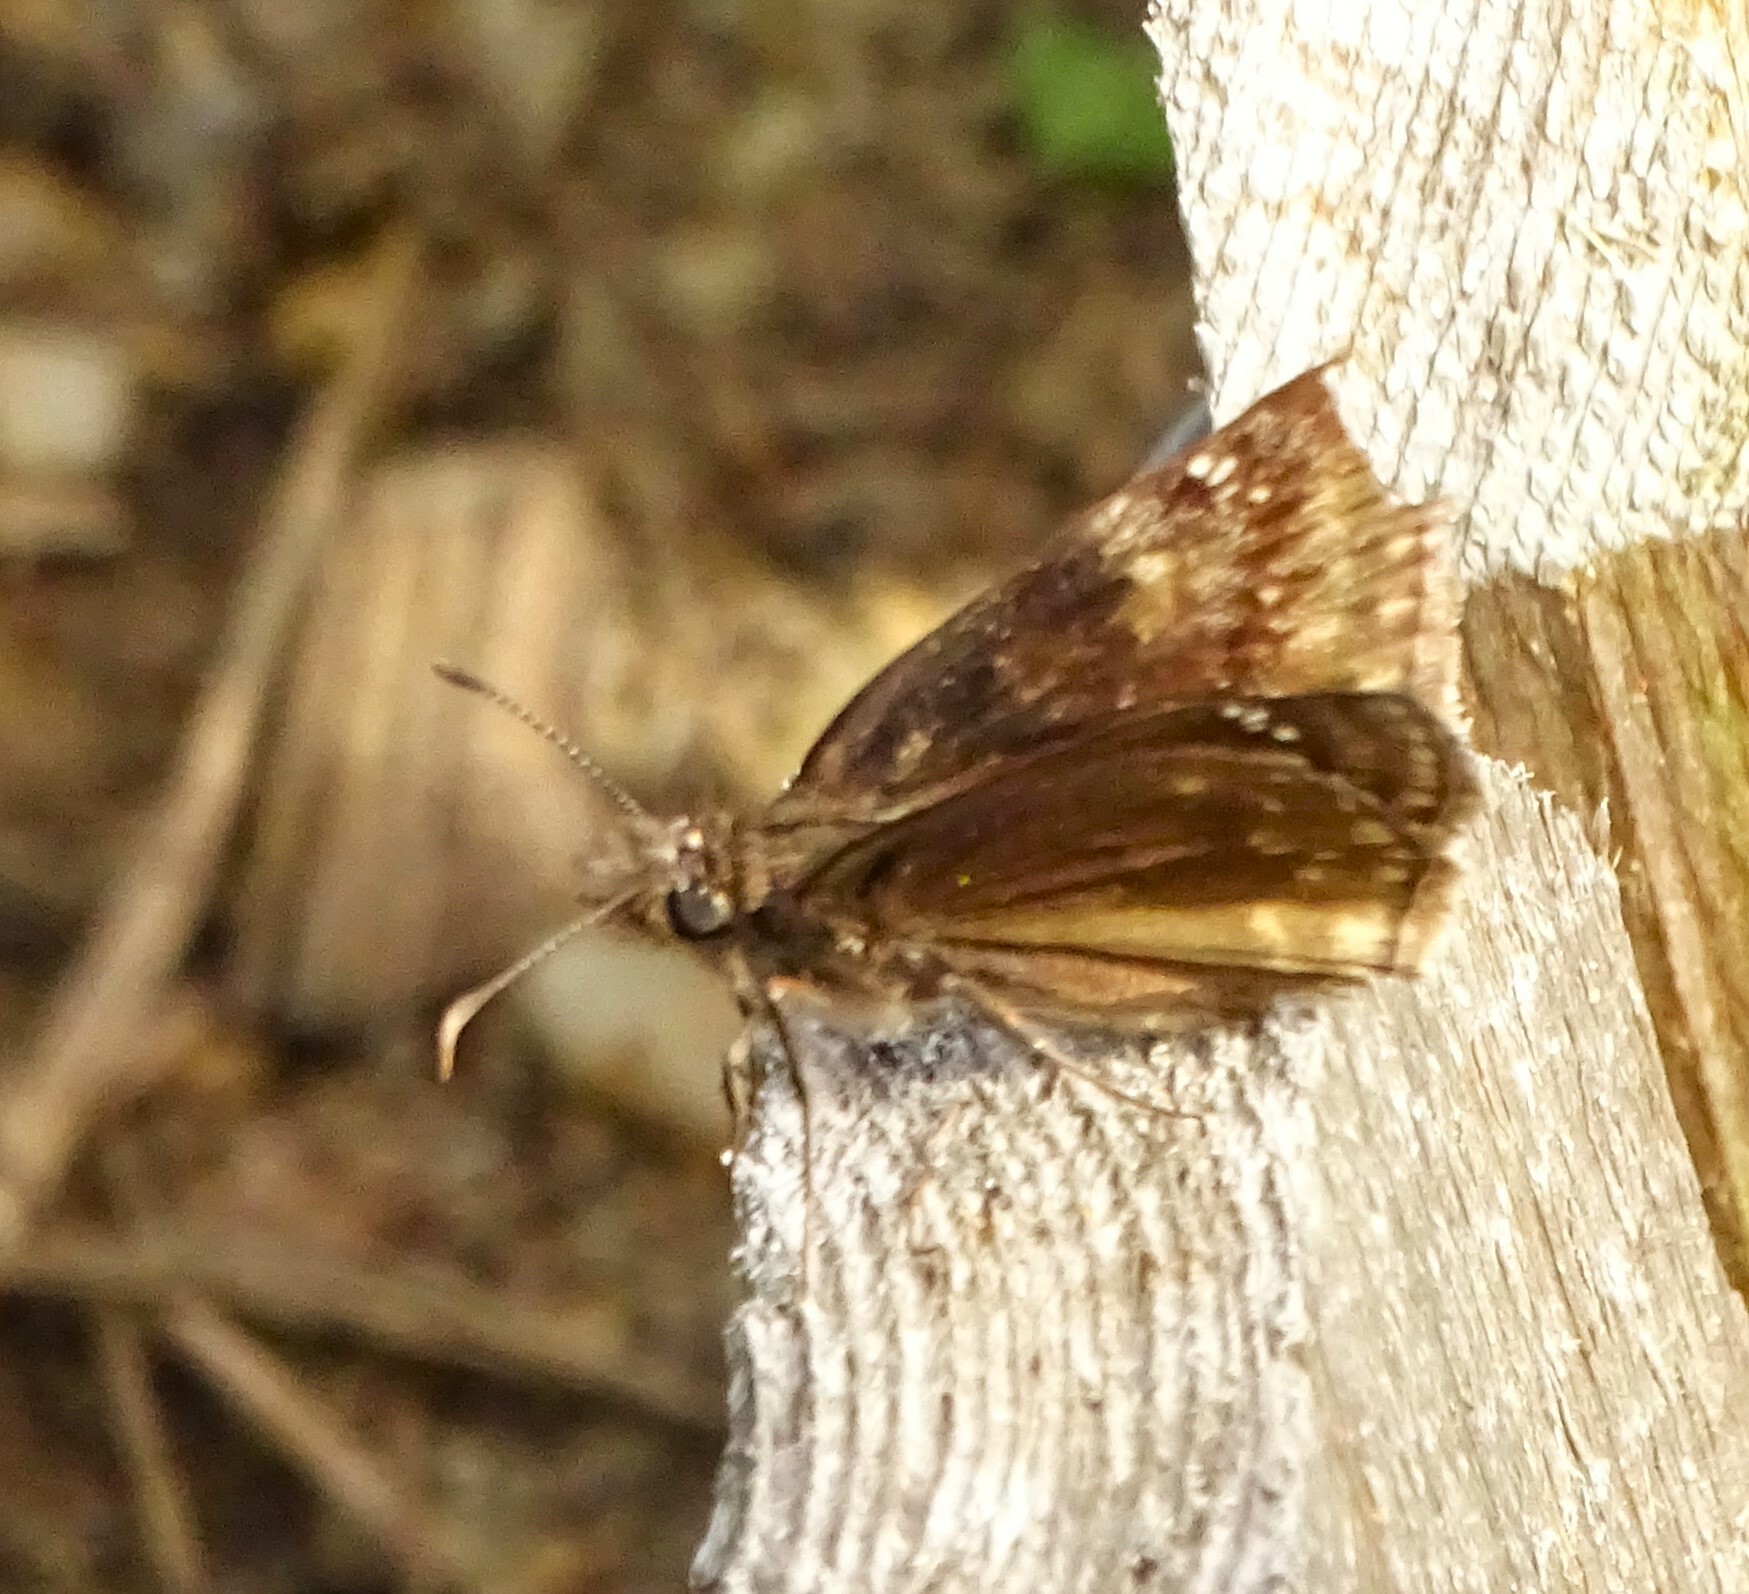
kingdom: Animalia
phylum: Arthropoda
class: Insecta
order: Lepidoptera
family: Hesperiidae
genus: Erynnis
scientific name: Erynnis baptisiae
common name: Wild indigo duskywing
